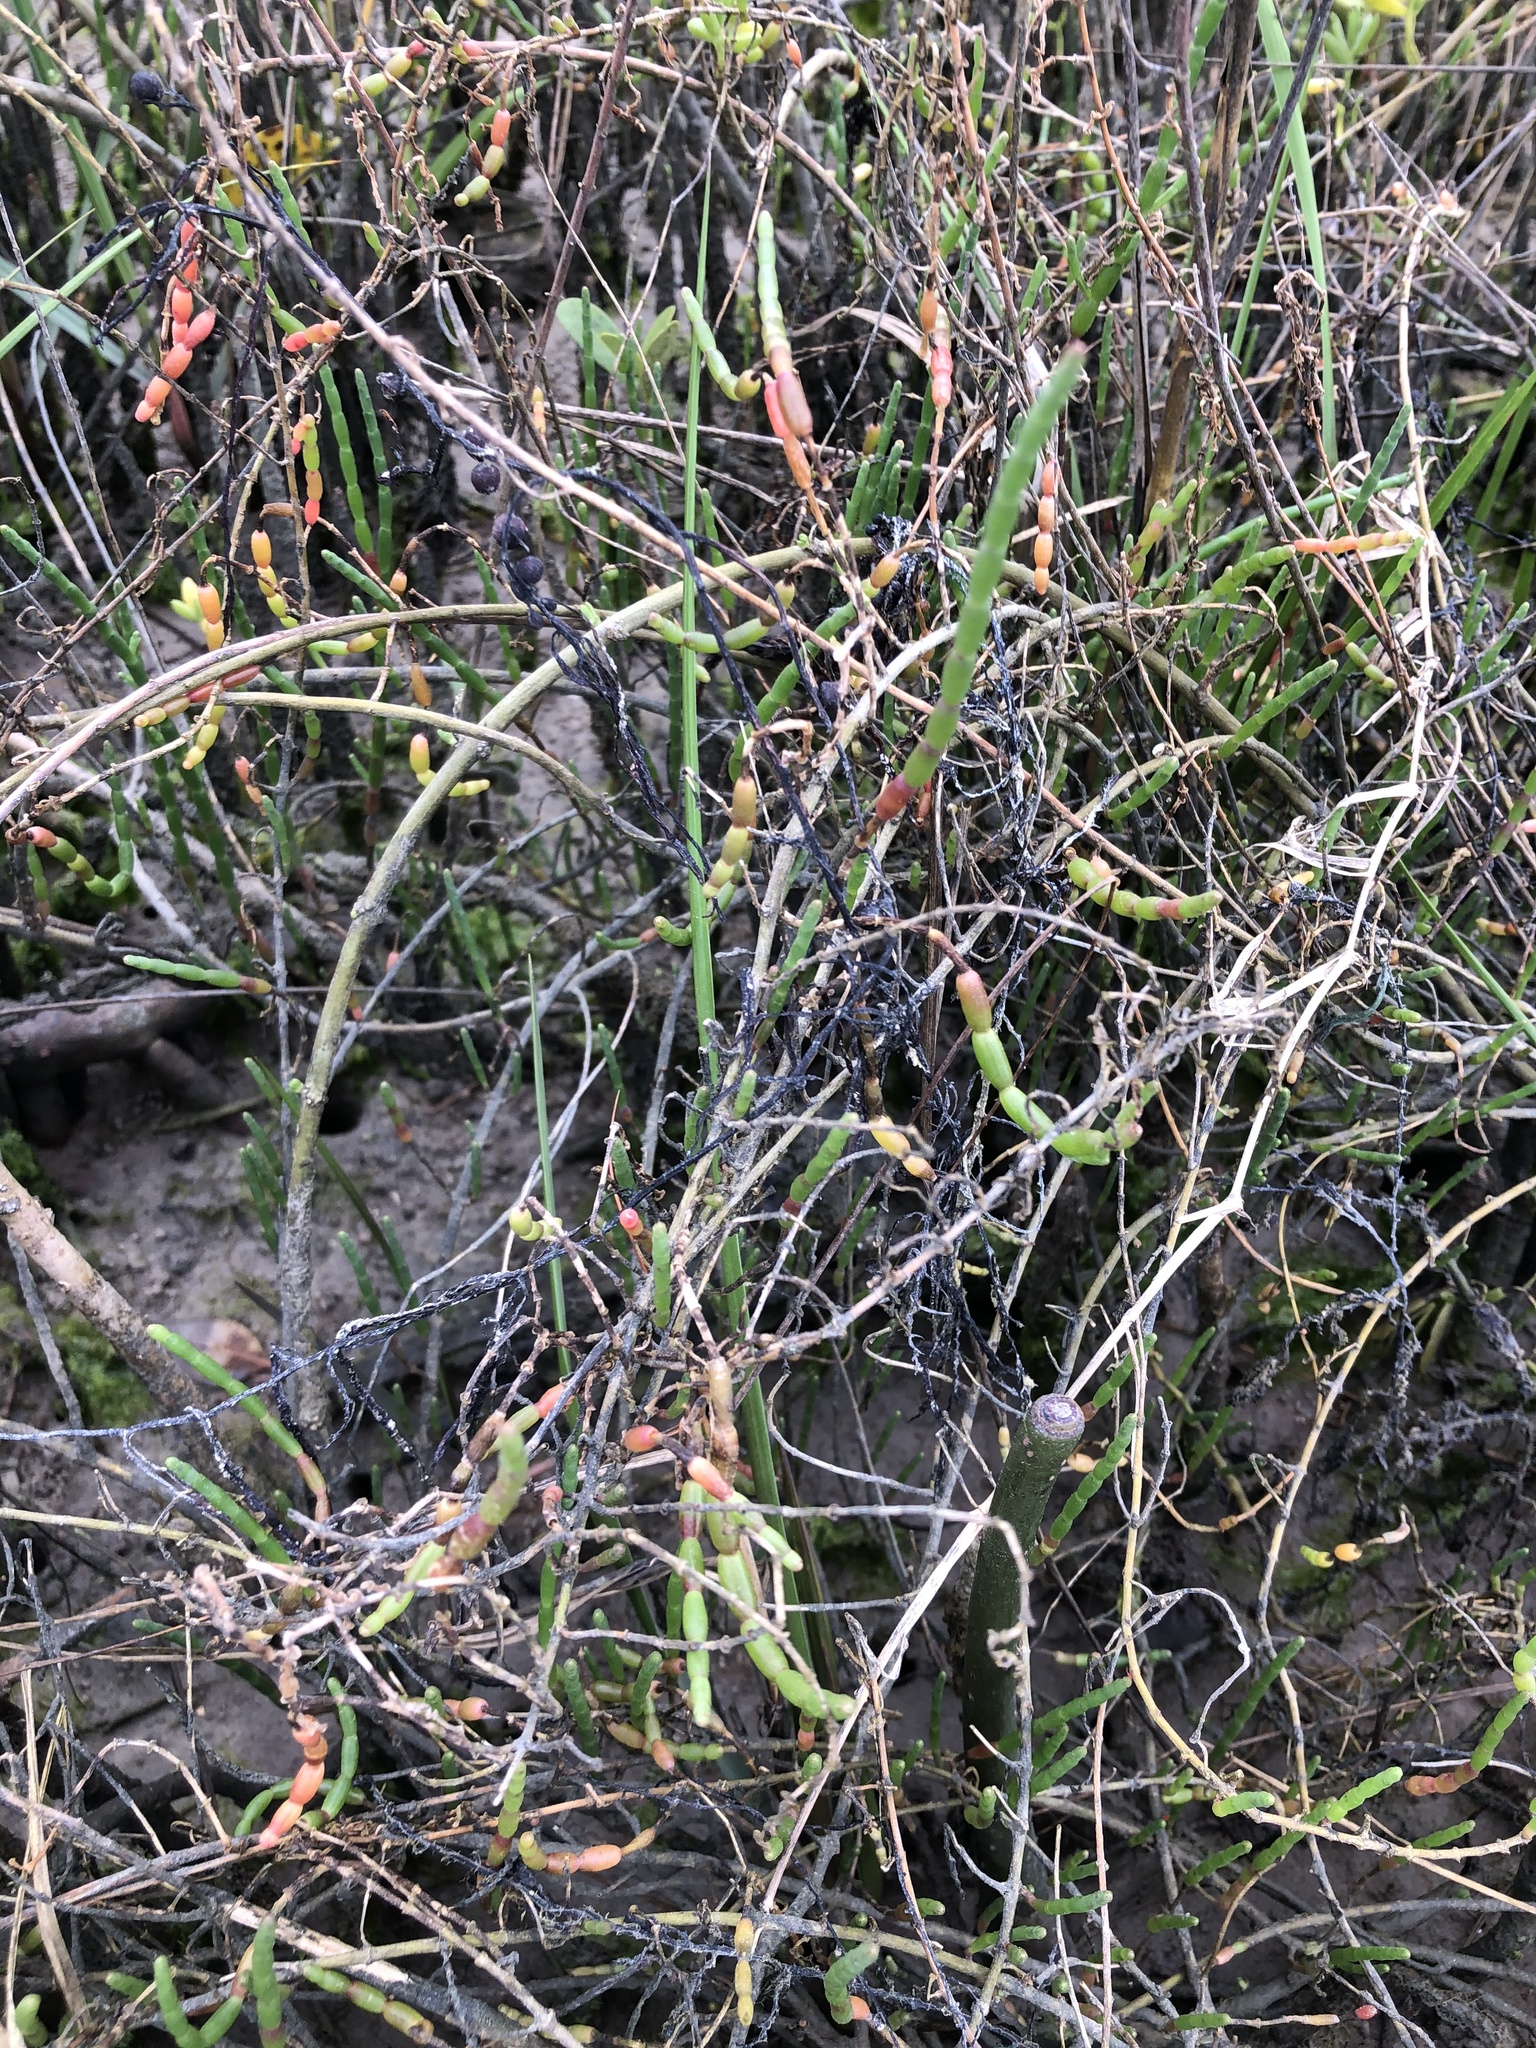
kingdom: Plantae
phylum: Tracheophyta
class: Magnoliopsida
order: Caryophyllales
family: Amaranthaceae
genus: Salicornia
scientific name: Salicornia ambigua
